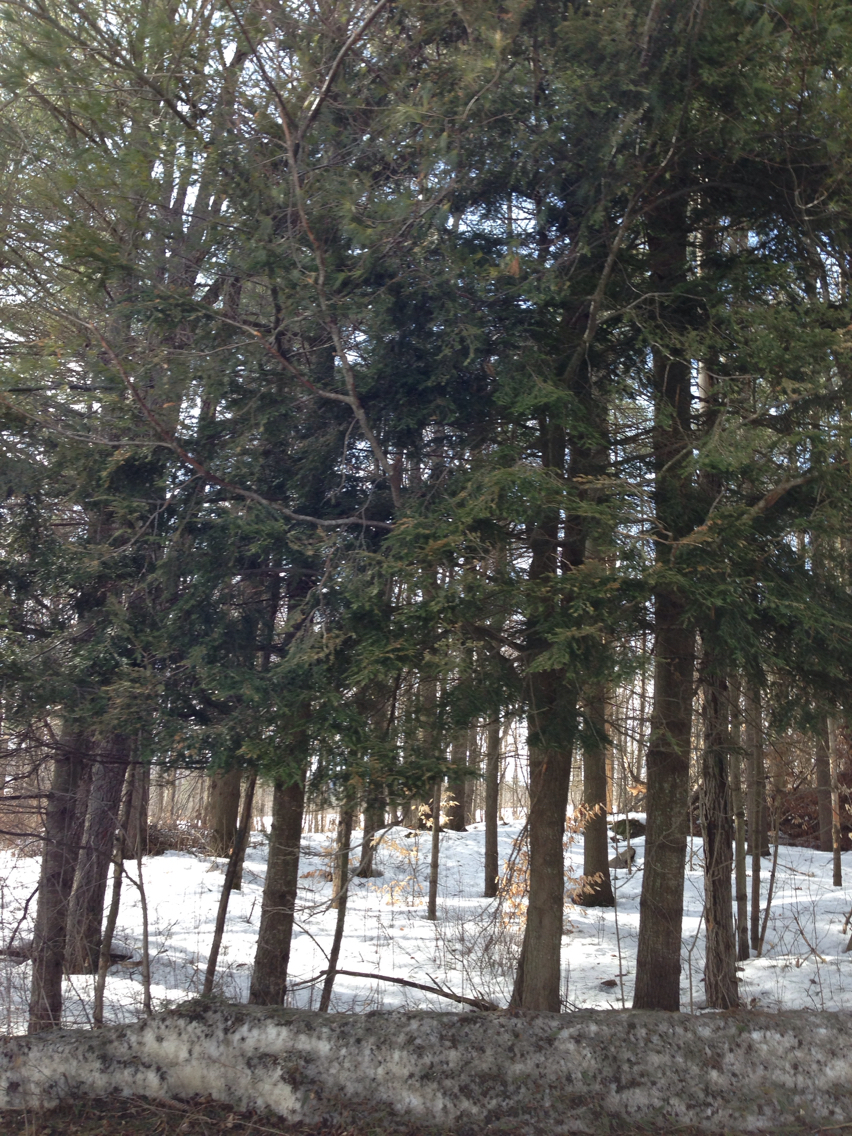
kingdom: Plantae
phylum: Tracheophyta
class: Pinopsida
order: Pinales
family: Pinaceae
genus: Tsuga
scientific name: Tsuga canadensis
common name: Eastern hemlock
